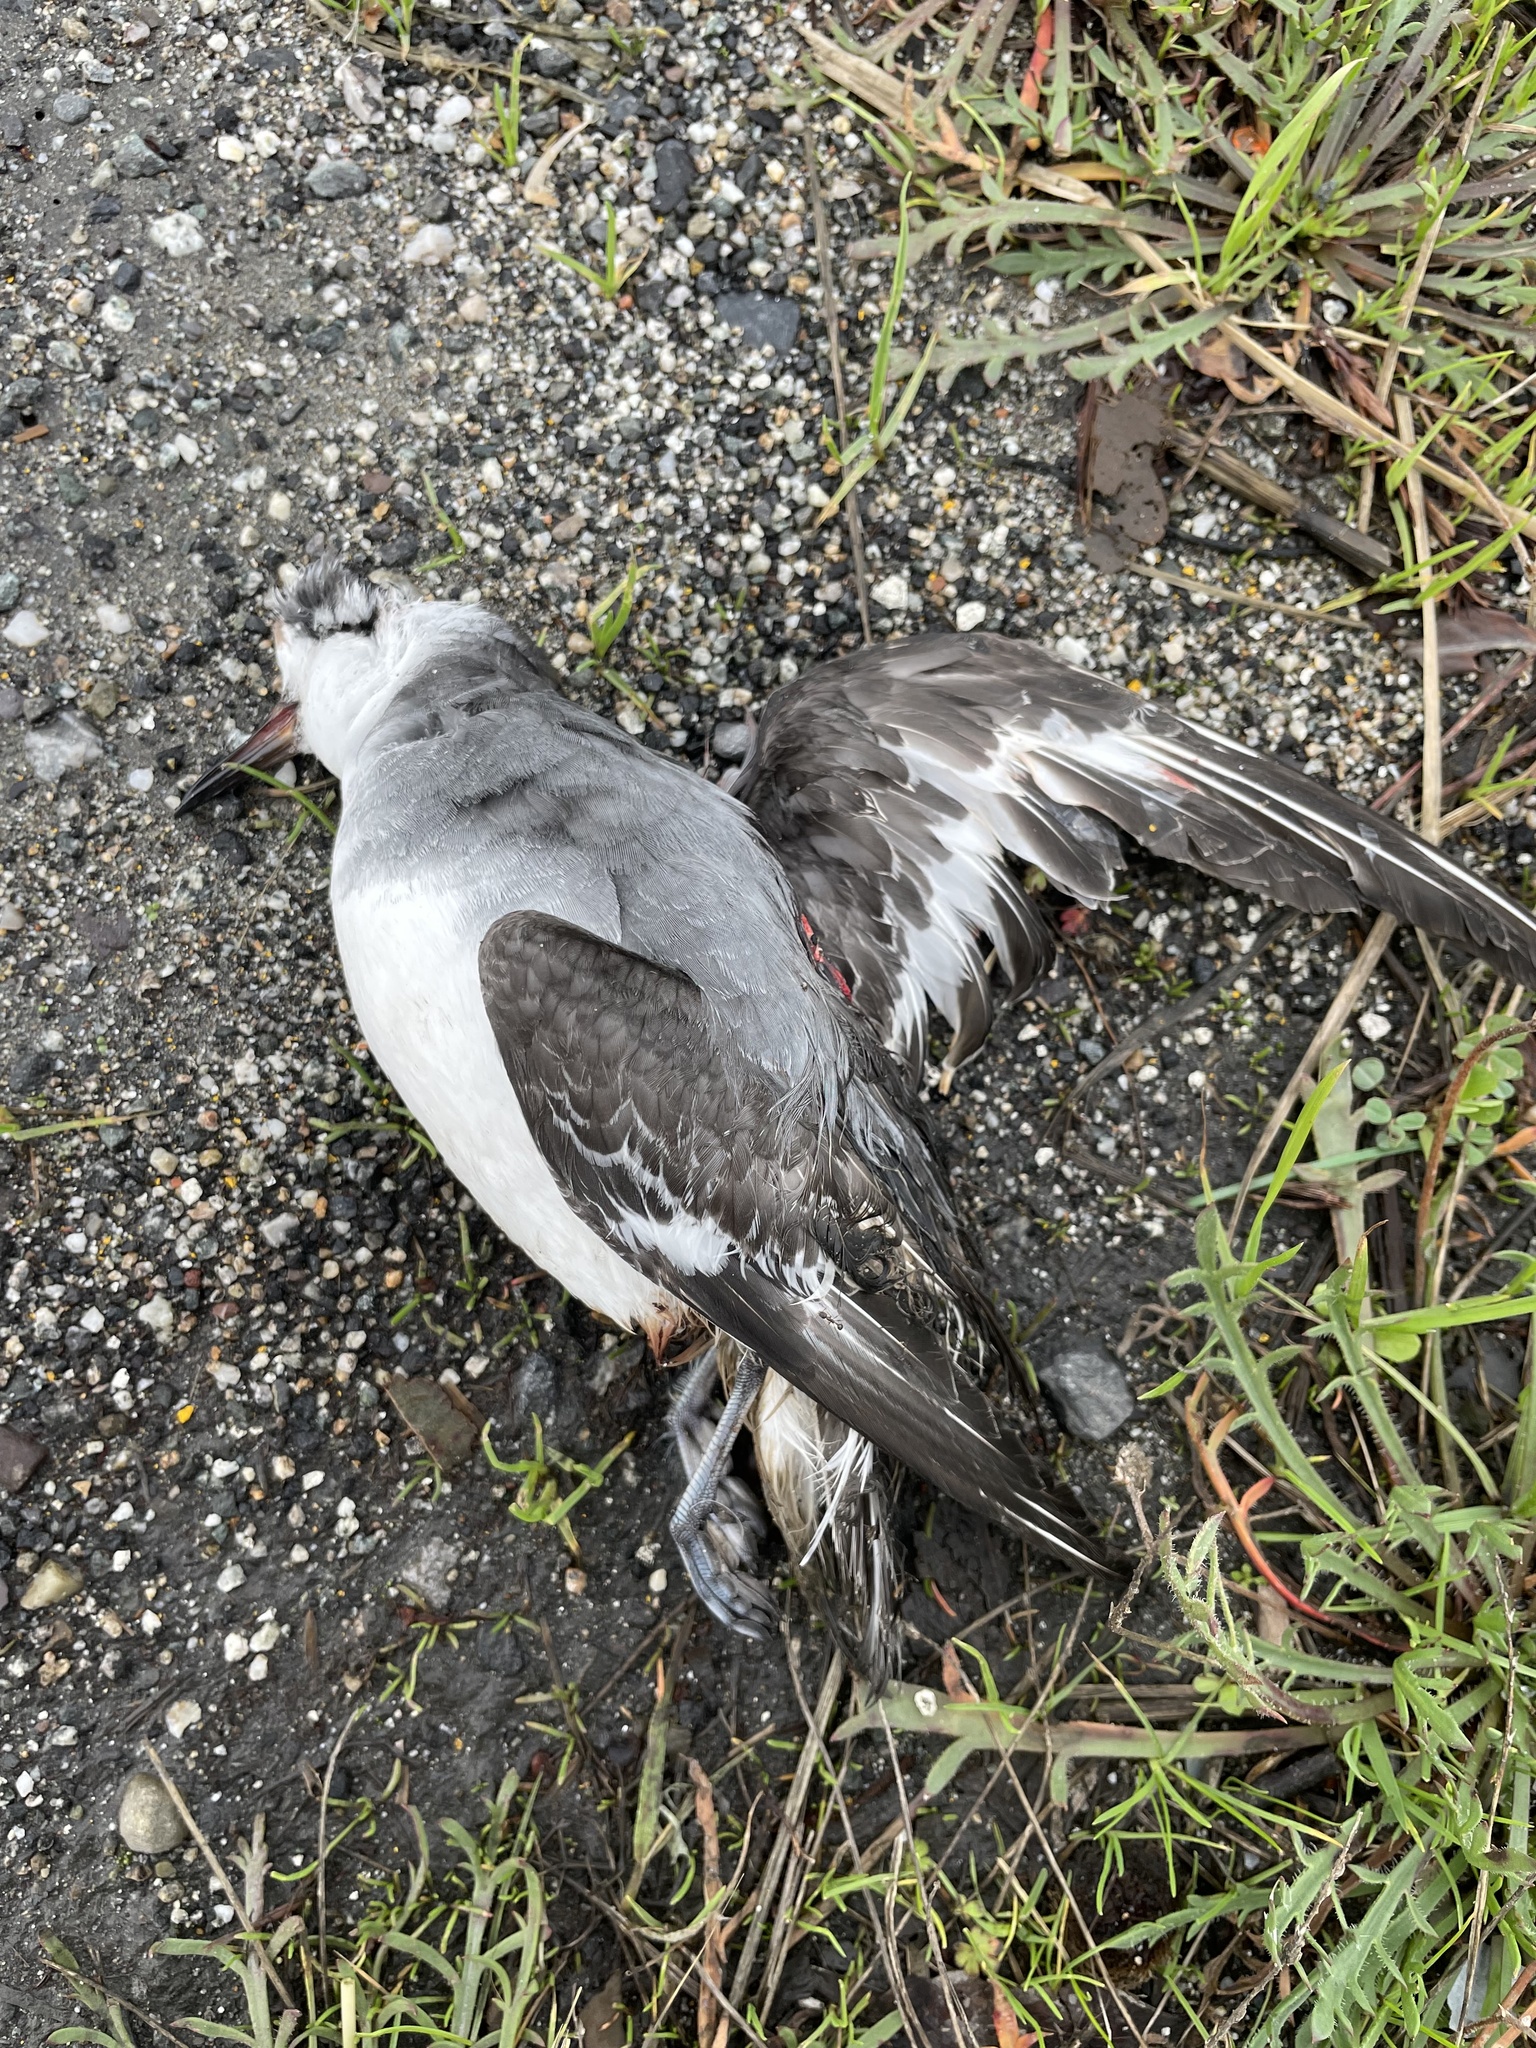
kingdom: Animalia
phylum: Chordata
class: Aves
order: Charadriiformes
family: Scolopacidae
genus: Phalaropus
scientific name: Phalaropus fulicarius
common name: Red phalarope
